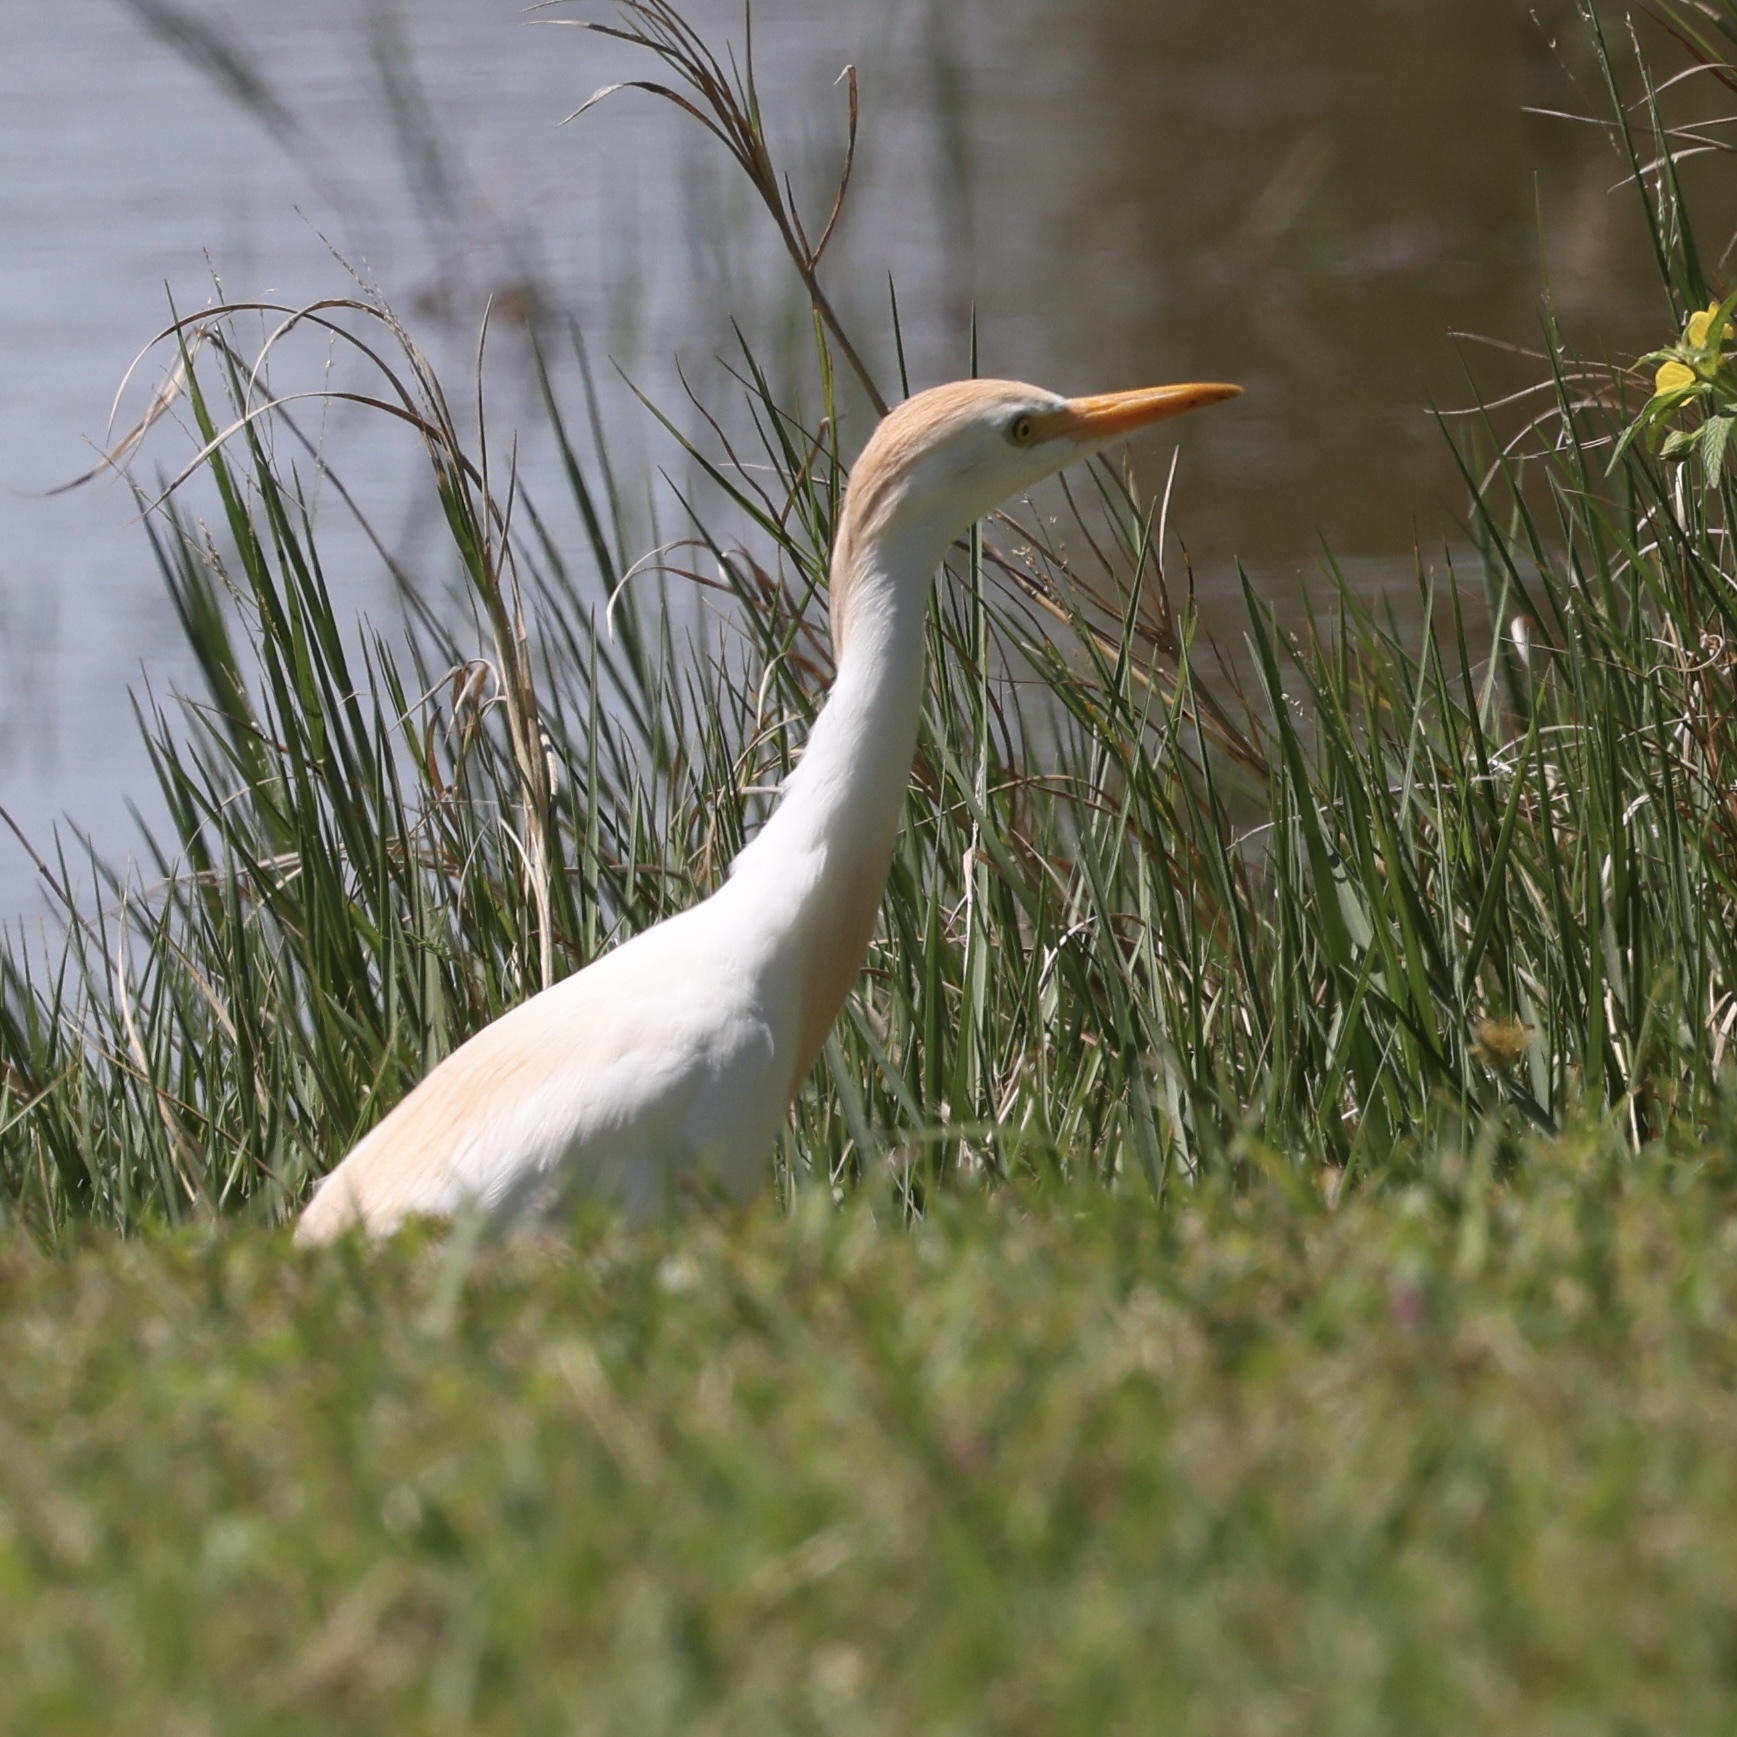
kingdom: Animalia
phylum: Chordata
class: Aves
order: Pelecaniformes
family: Ardeidae
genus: Bubulcus
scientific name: Bubulcus ibis
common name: Cattle egret
